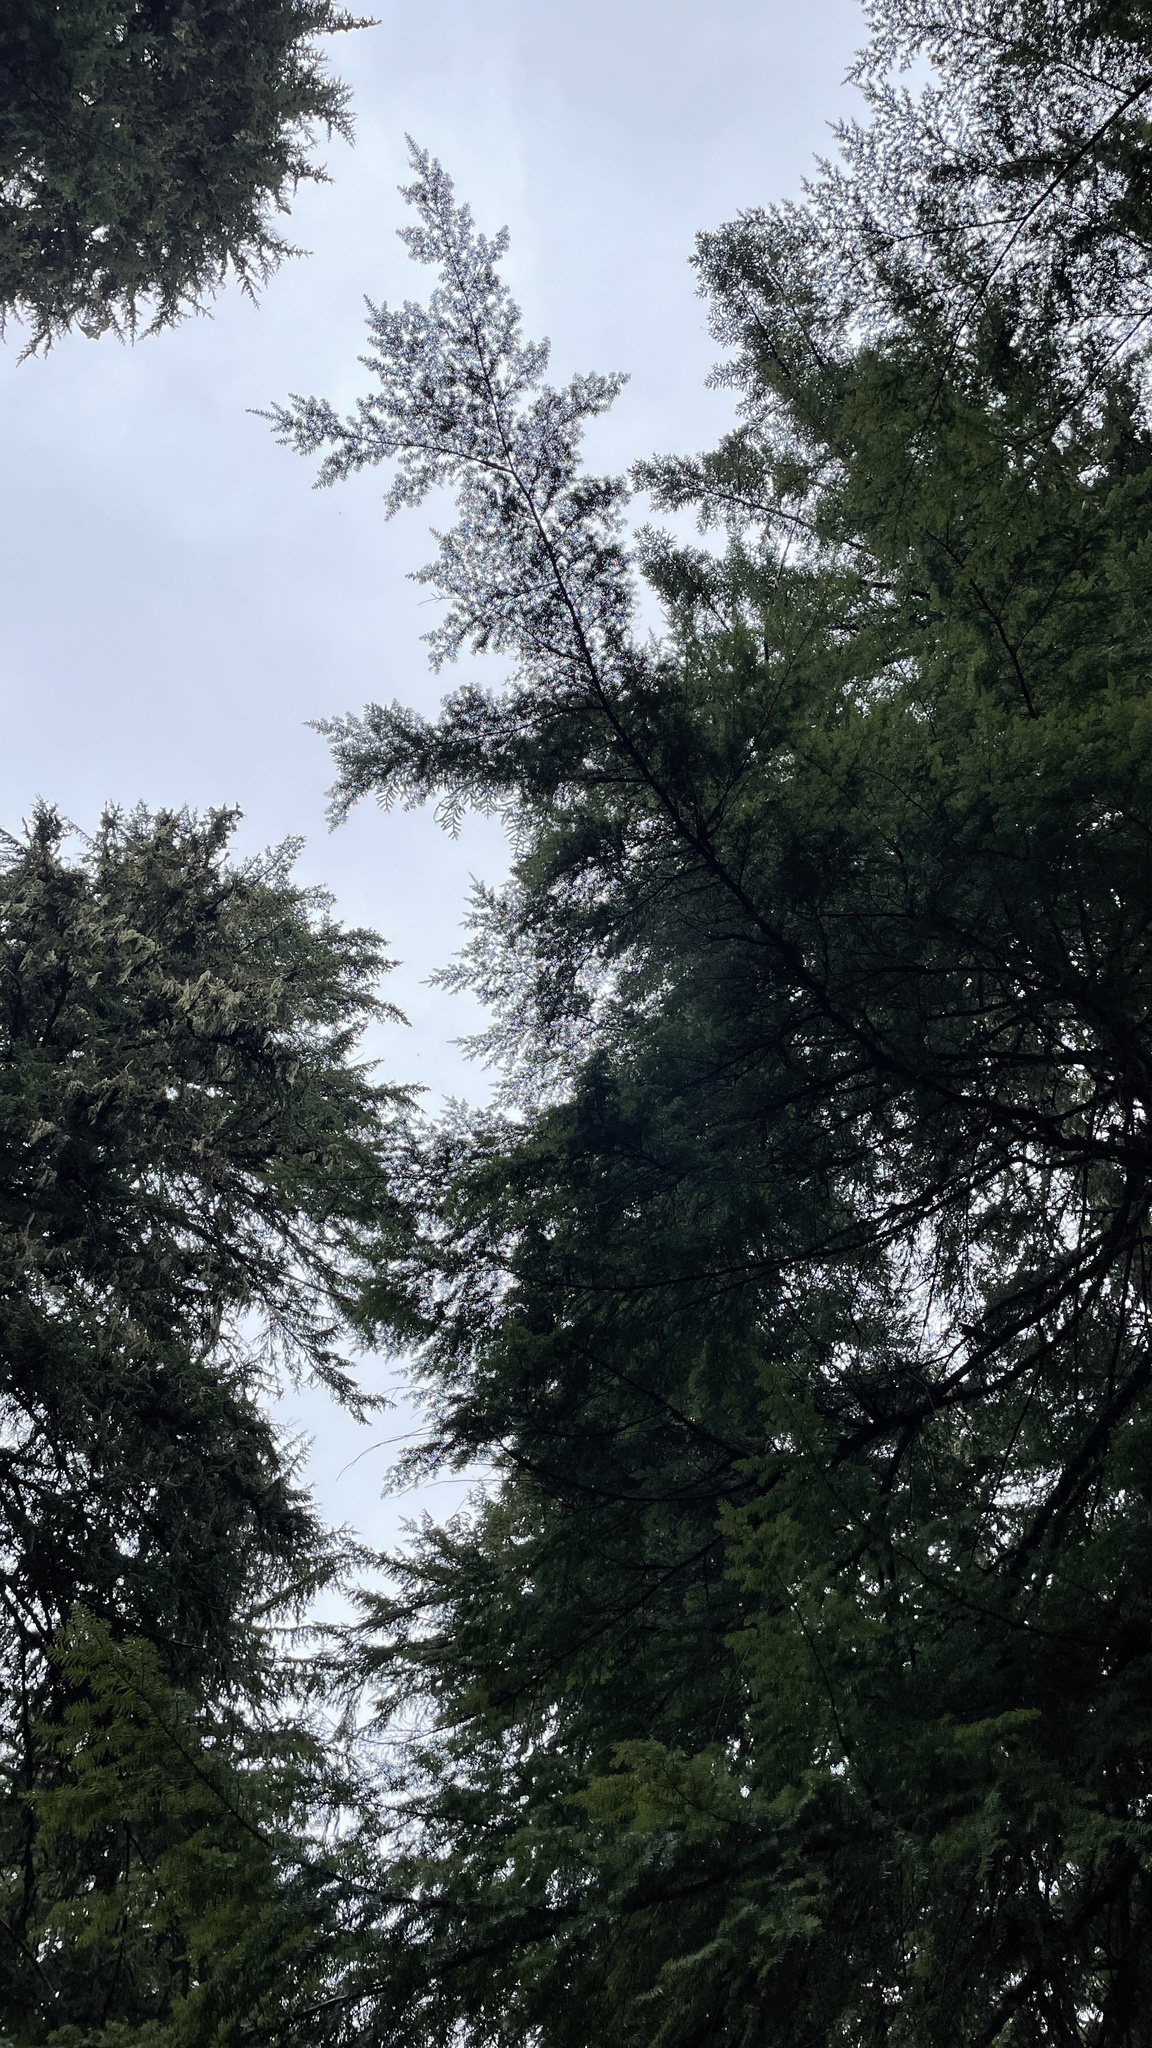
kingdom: Fungi
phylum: Ascomycota
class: Pezizomycetes
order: Pezizales
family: Morchellaceae
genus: Leucangium
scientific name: Leucangium carthusianum
